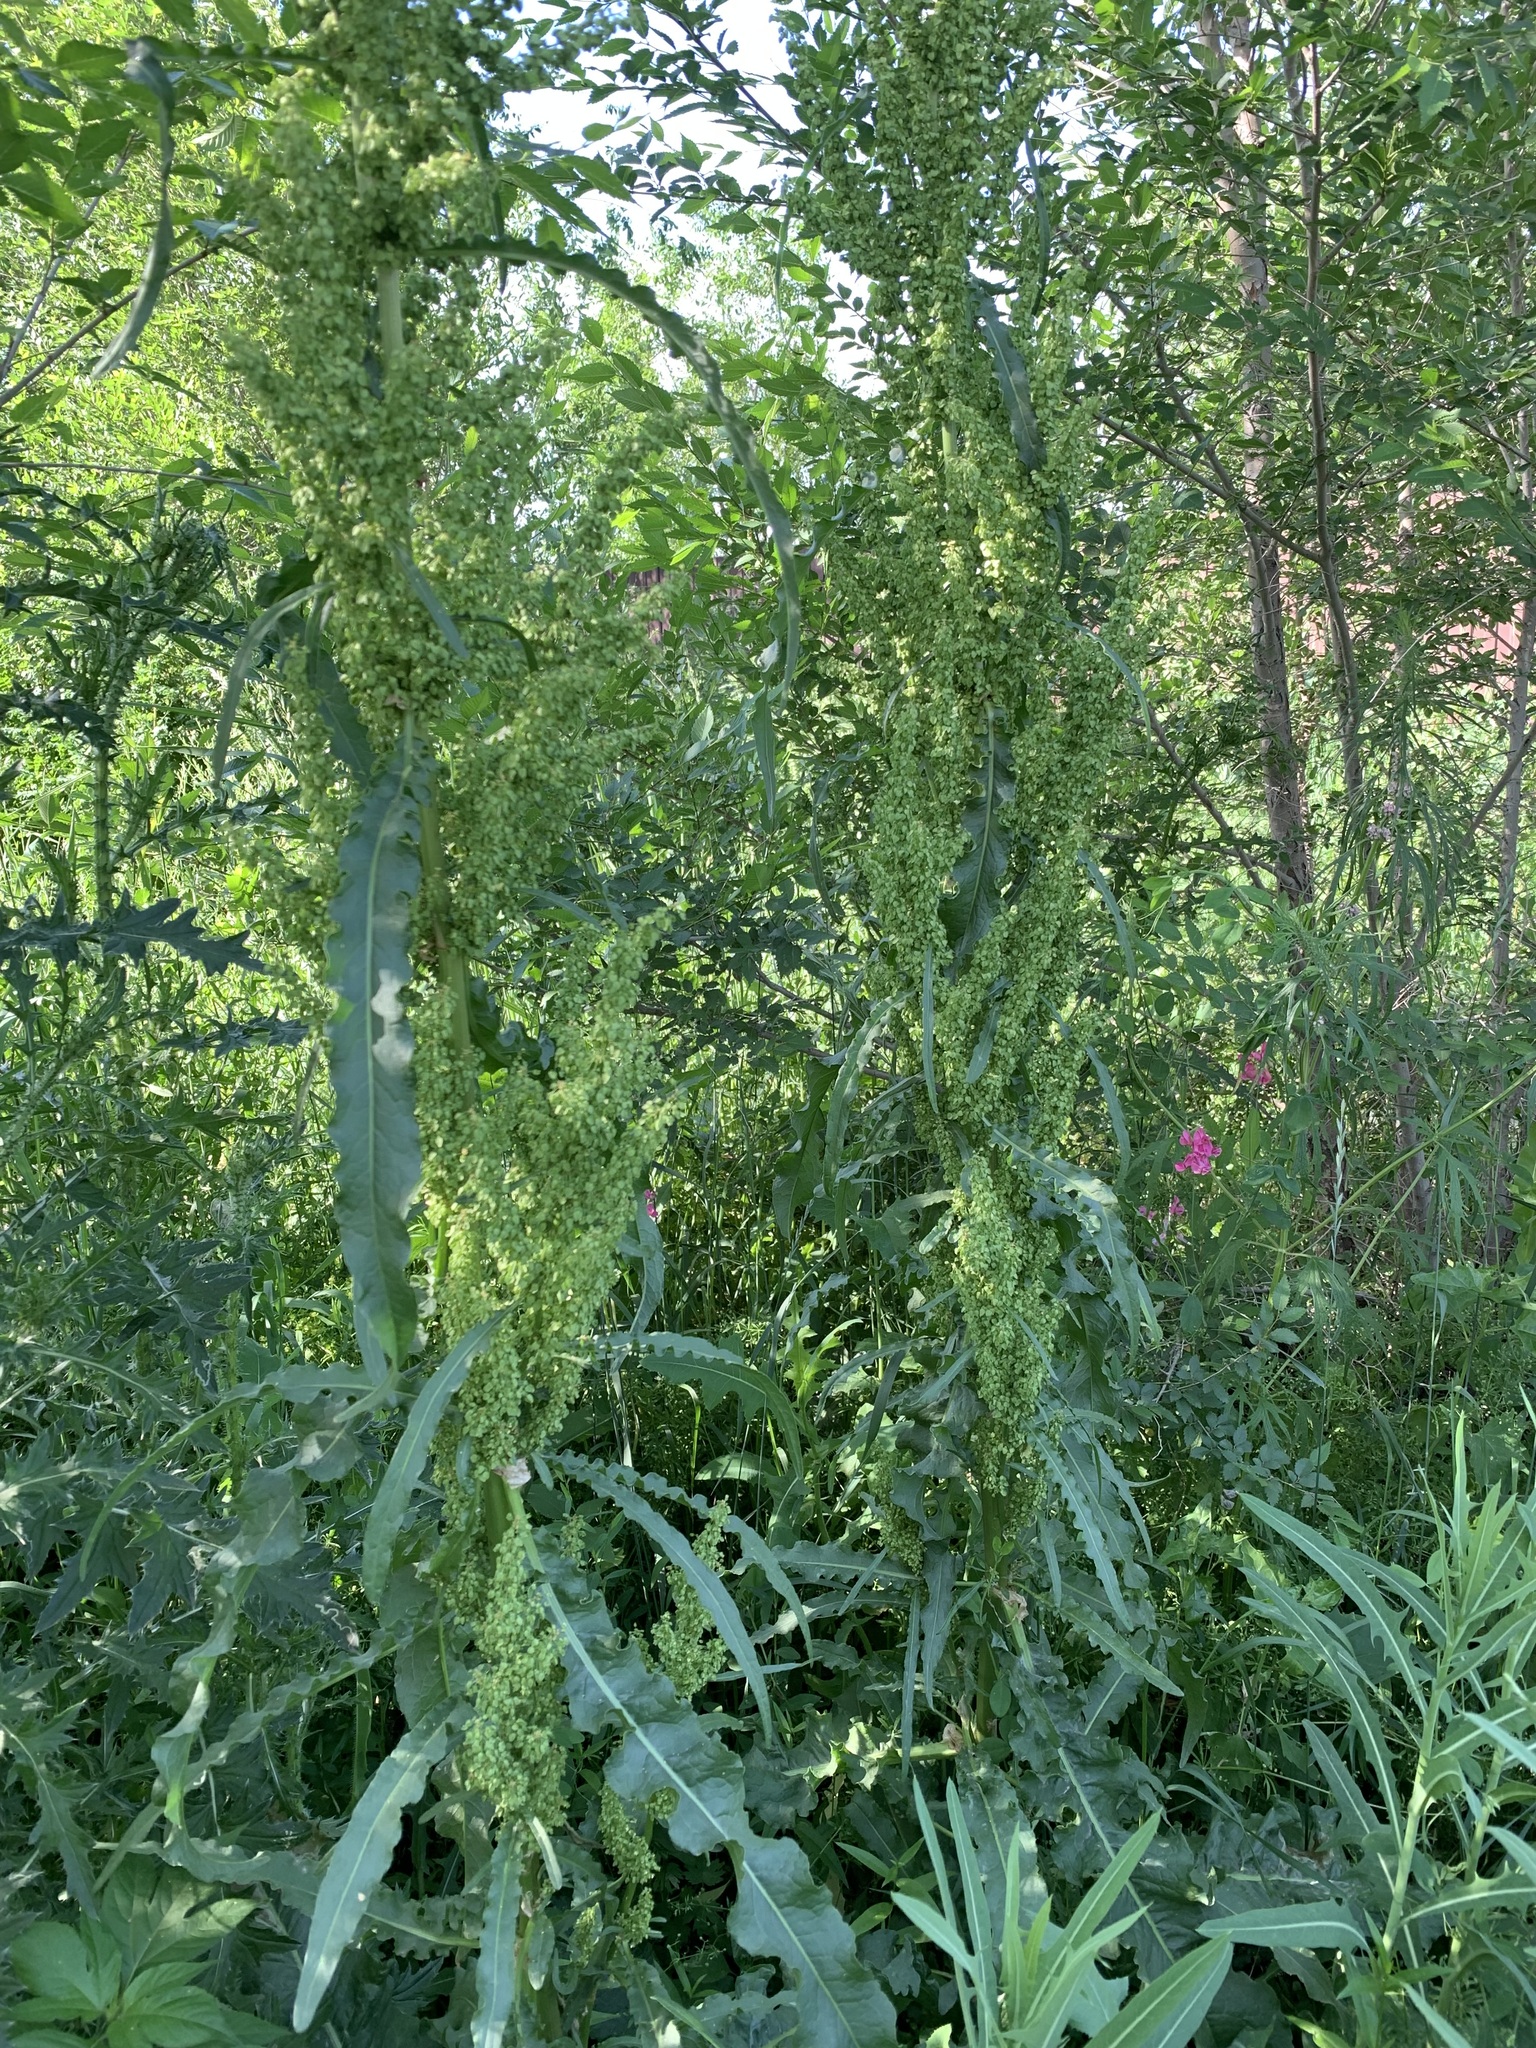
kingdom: Plantae
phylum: Tracheophyta
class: Magnoliopsida
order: Caryophyllales
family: Polygonaceae
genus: Rumex
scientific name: Rumex pseudonatronatus
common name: Field dock
